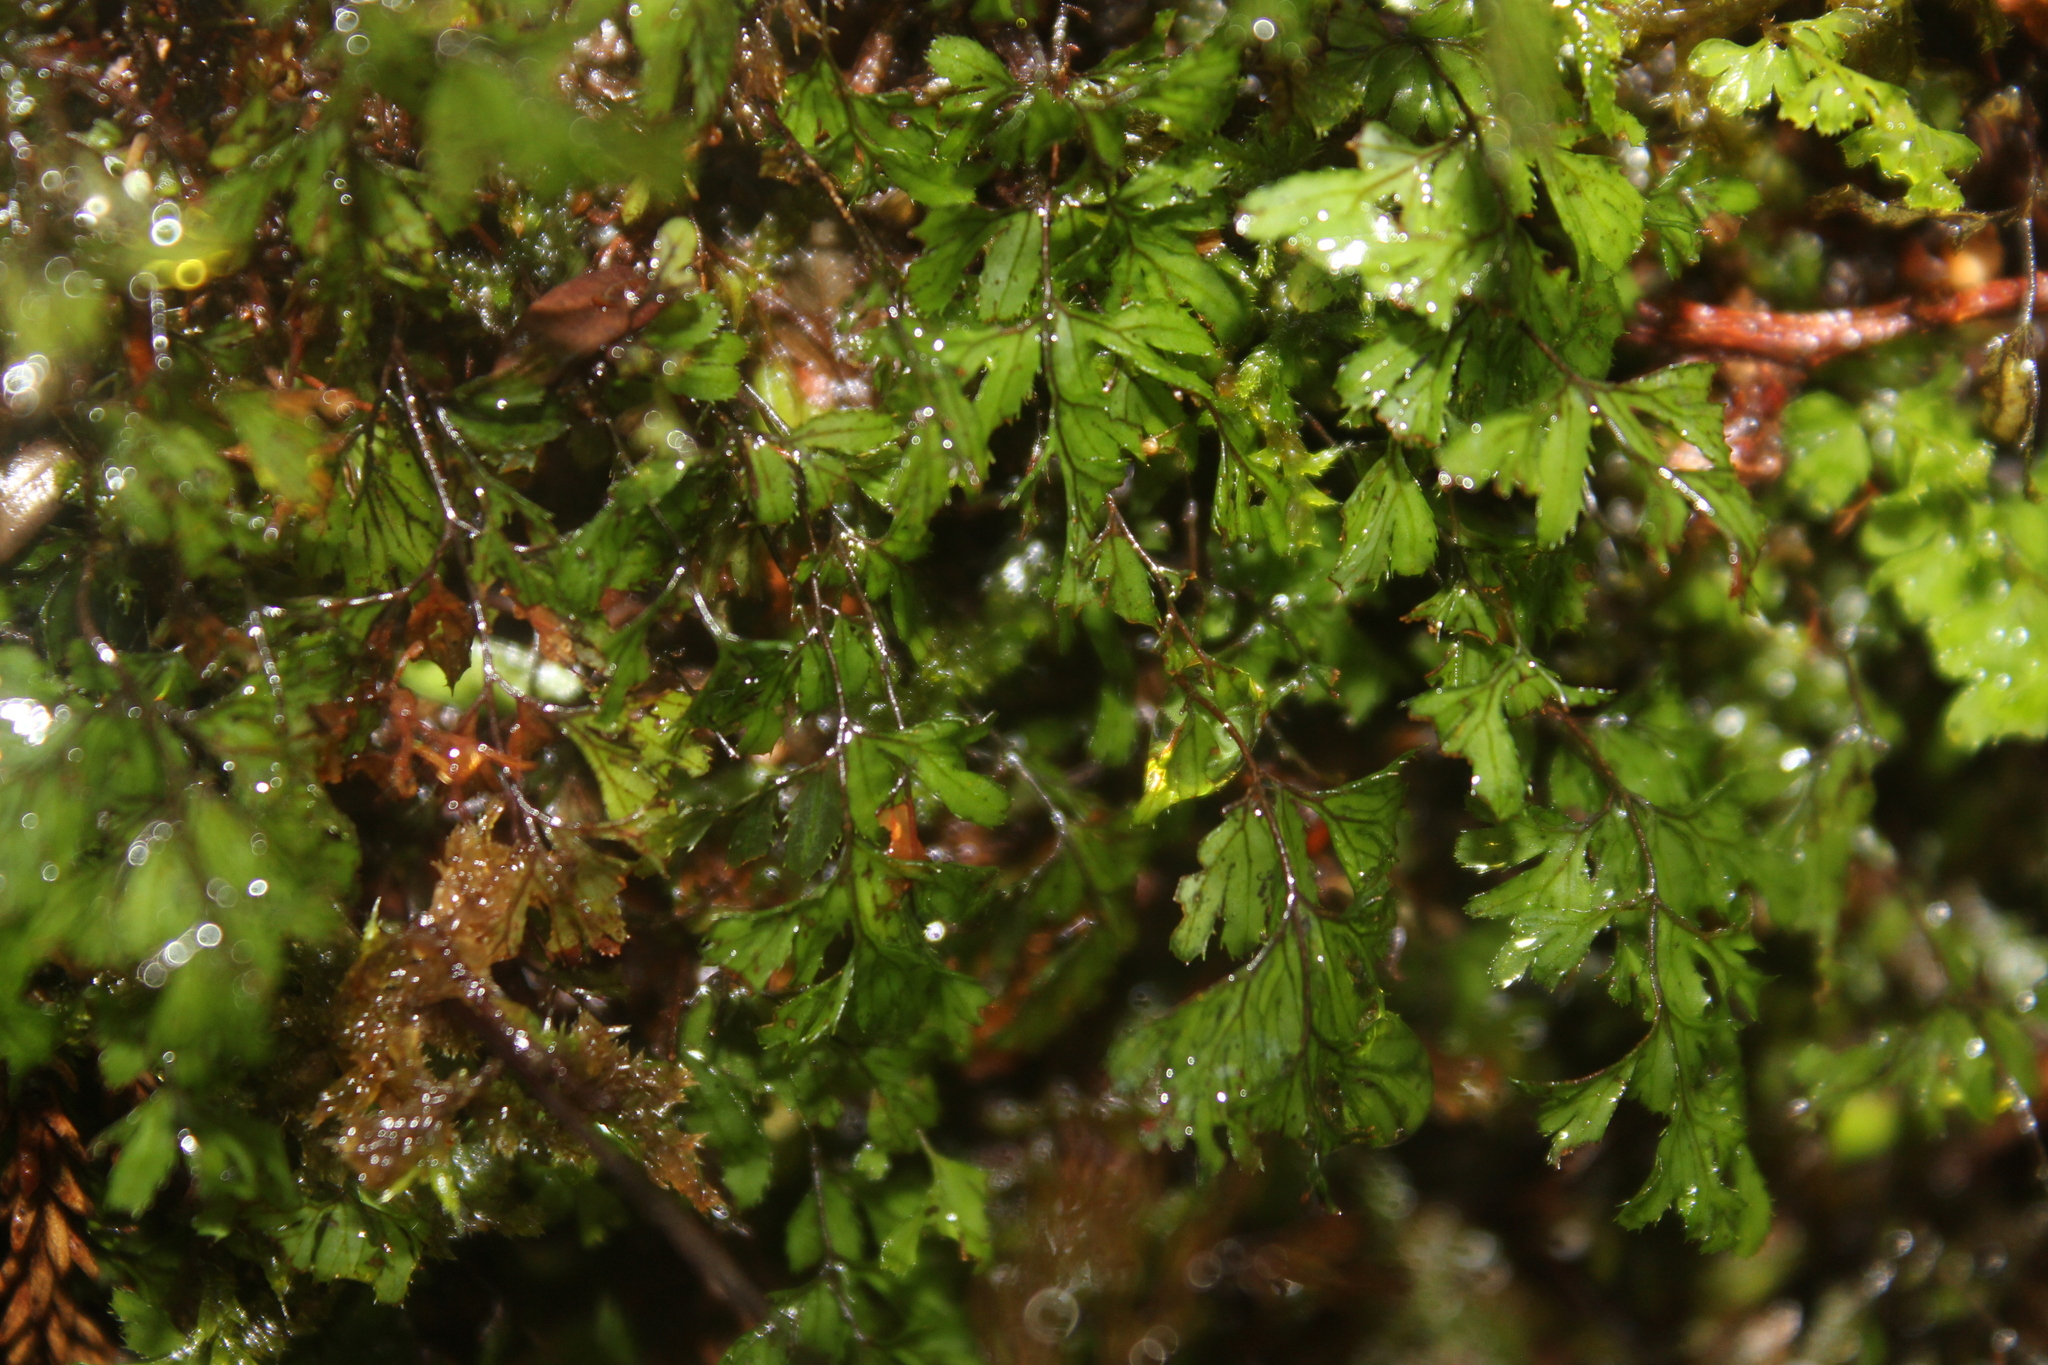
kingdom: Plantae
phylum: Tracheophyta
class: Polypodiopsida
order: Hymenophyllales
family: Hymenophyllaceae
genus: Hymenophyllum
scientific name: Hymenophyllum revolutum
